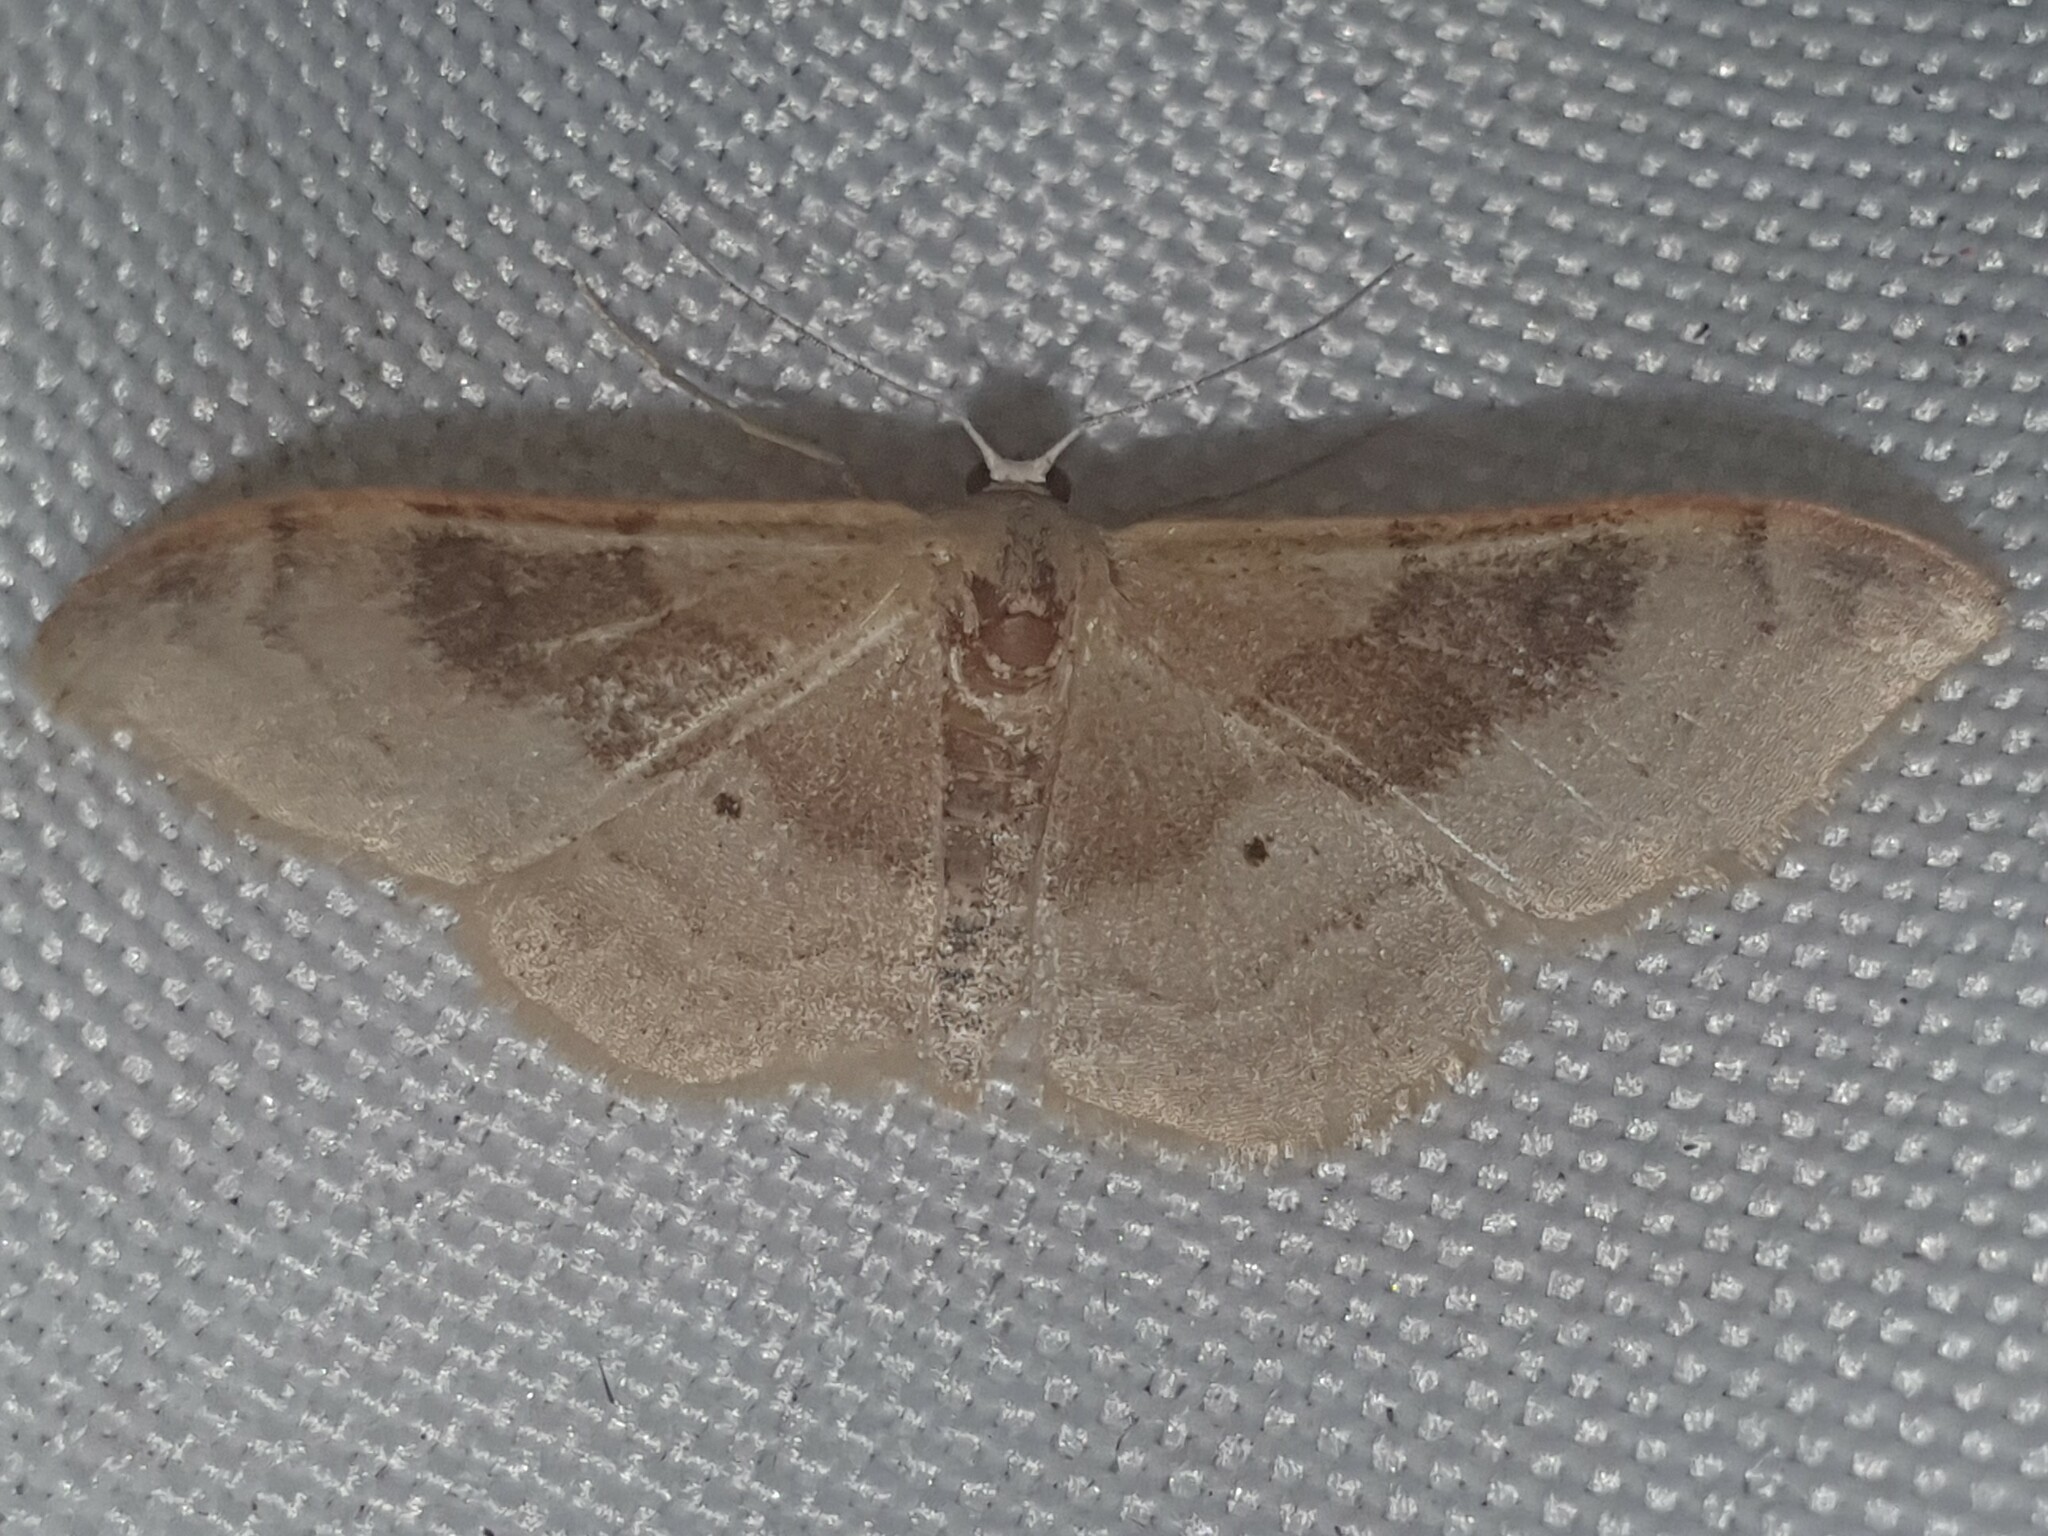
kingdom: Animalia
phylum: Arthropoda
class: Insecta
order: Lepidoptera
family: Geometridae
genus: Idaea
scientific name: Idaea degeneraria
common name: Portland ribbon wave
